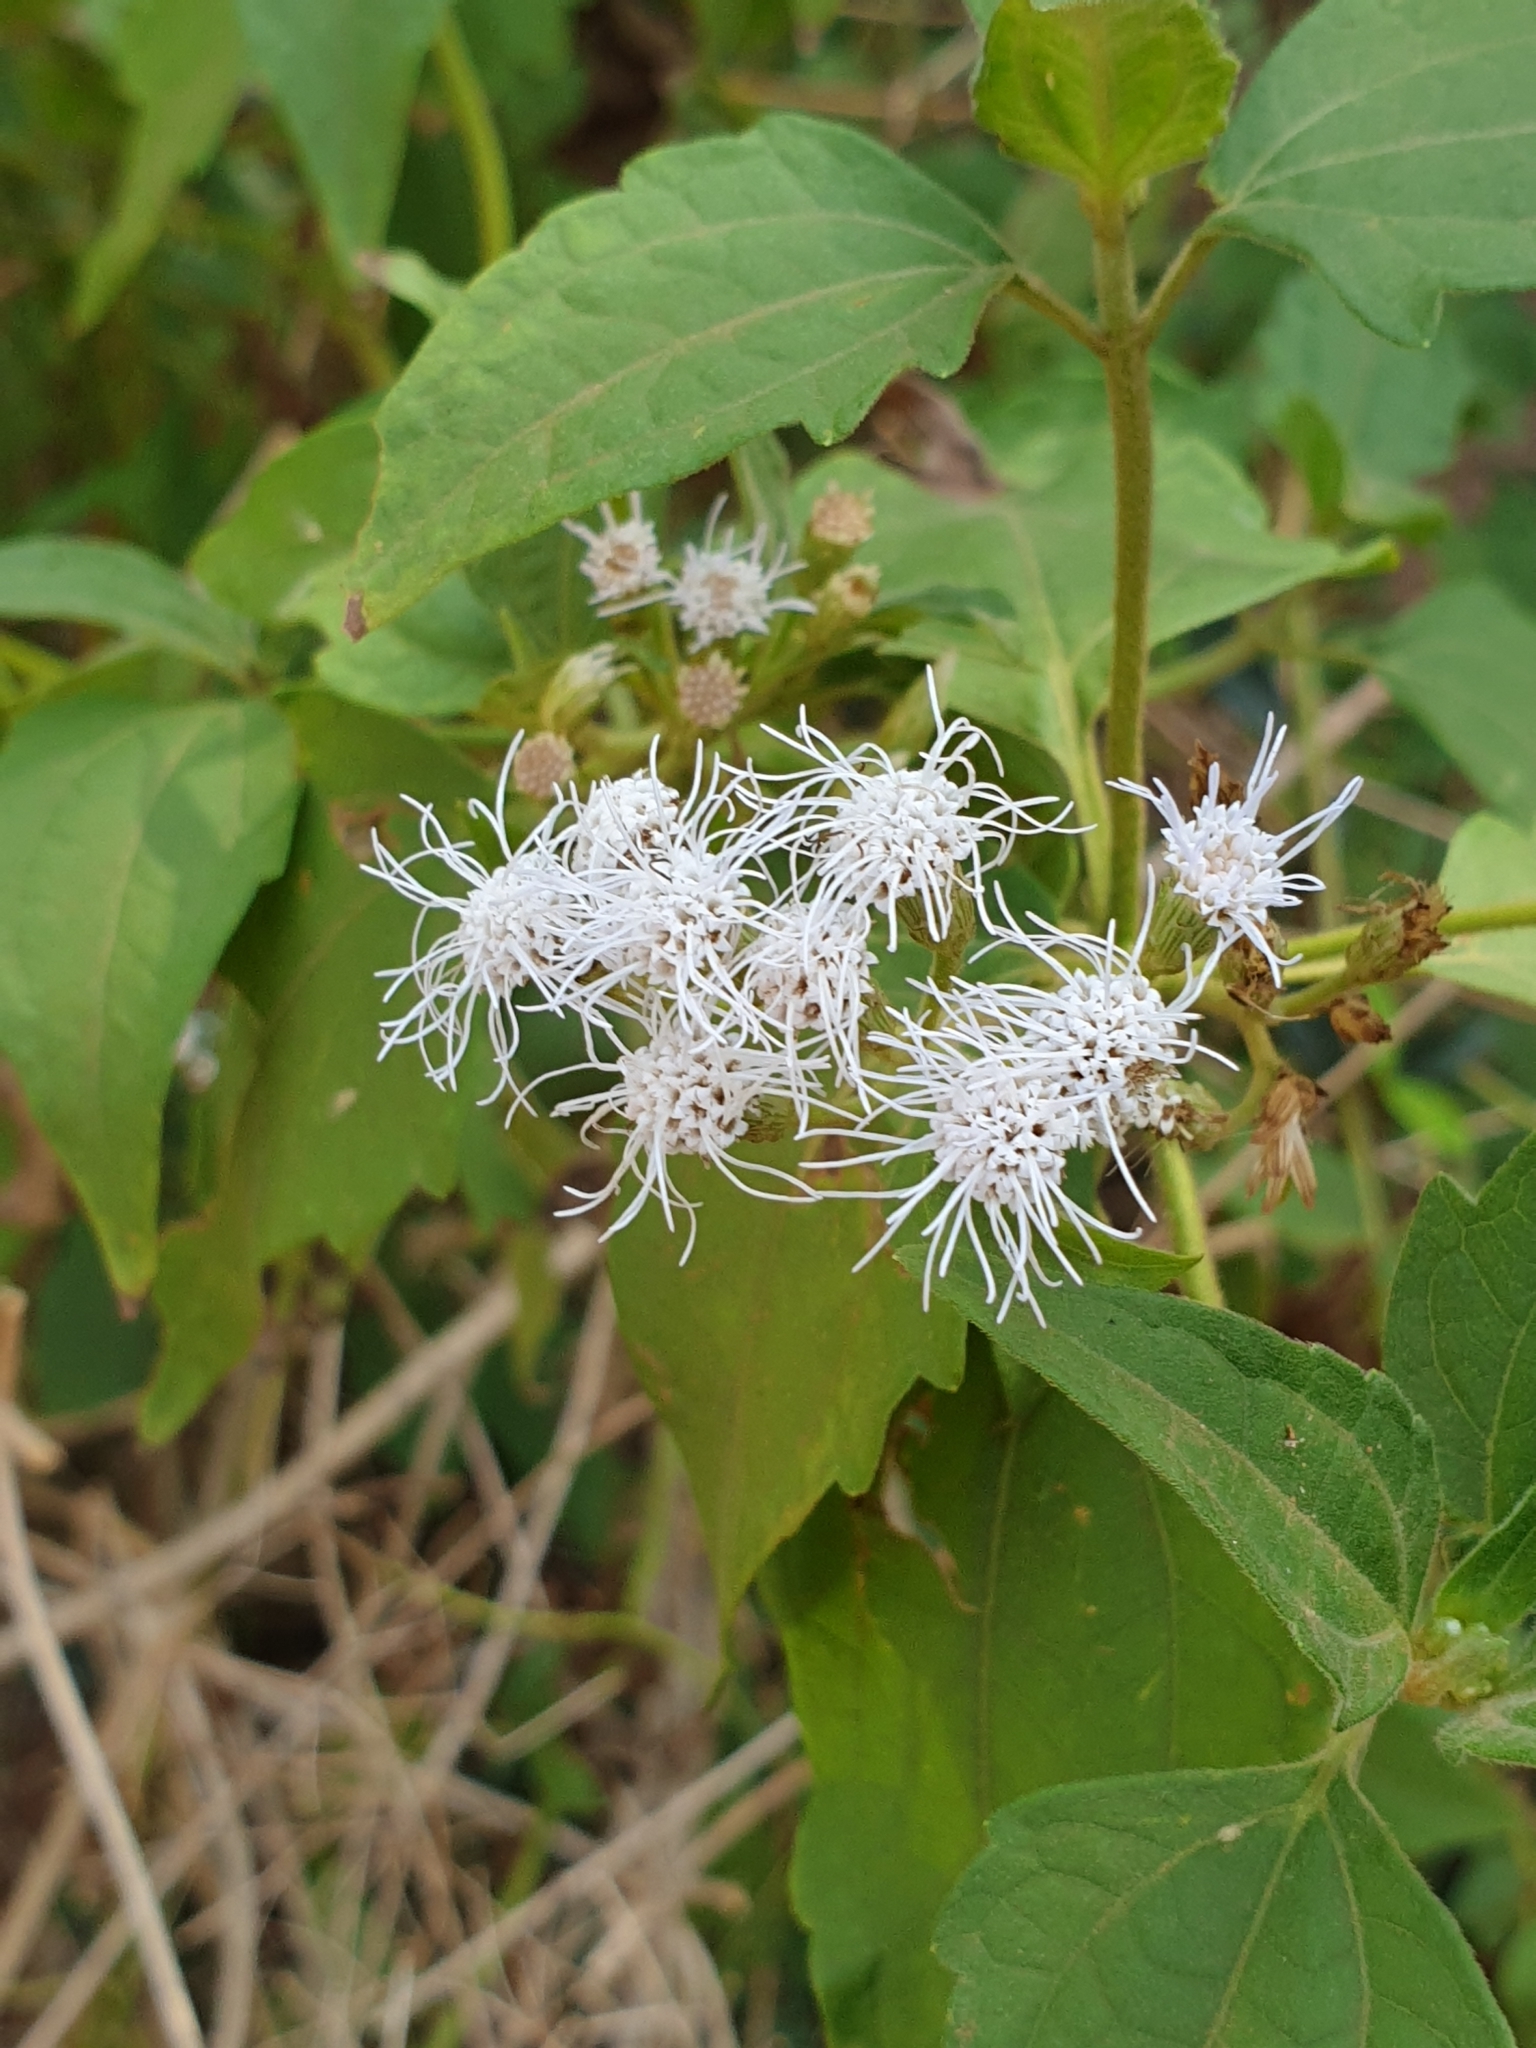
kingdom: Plantae
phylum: Tracheophyta
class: Magnoliopsida
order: Asterales
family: Asteraceae
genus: Chromolaena
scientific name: Chromolaena odorata
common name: Siamweed
